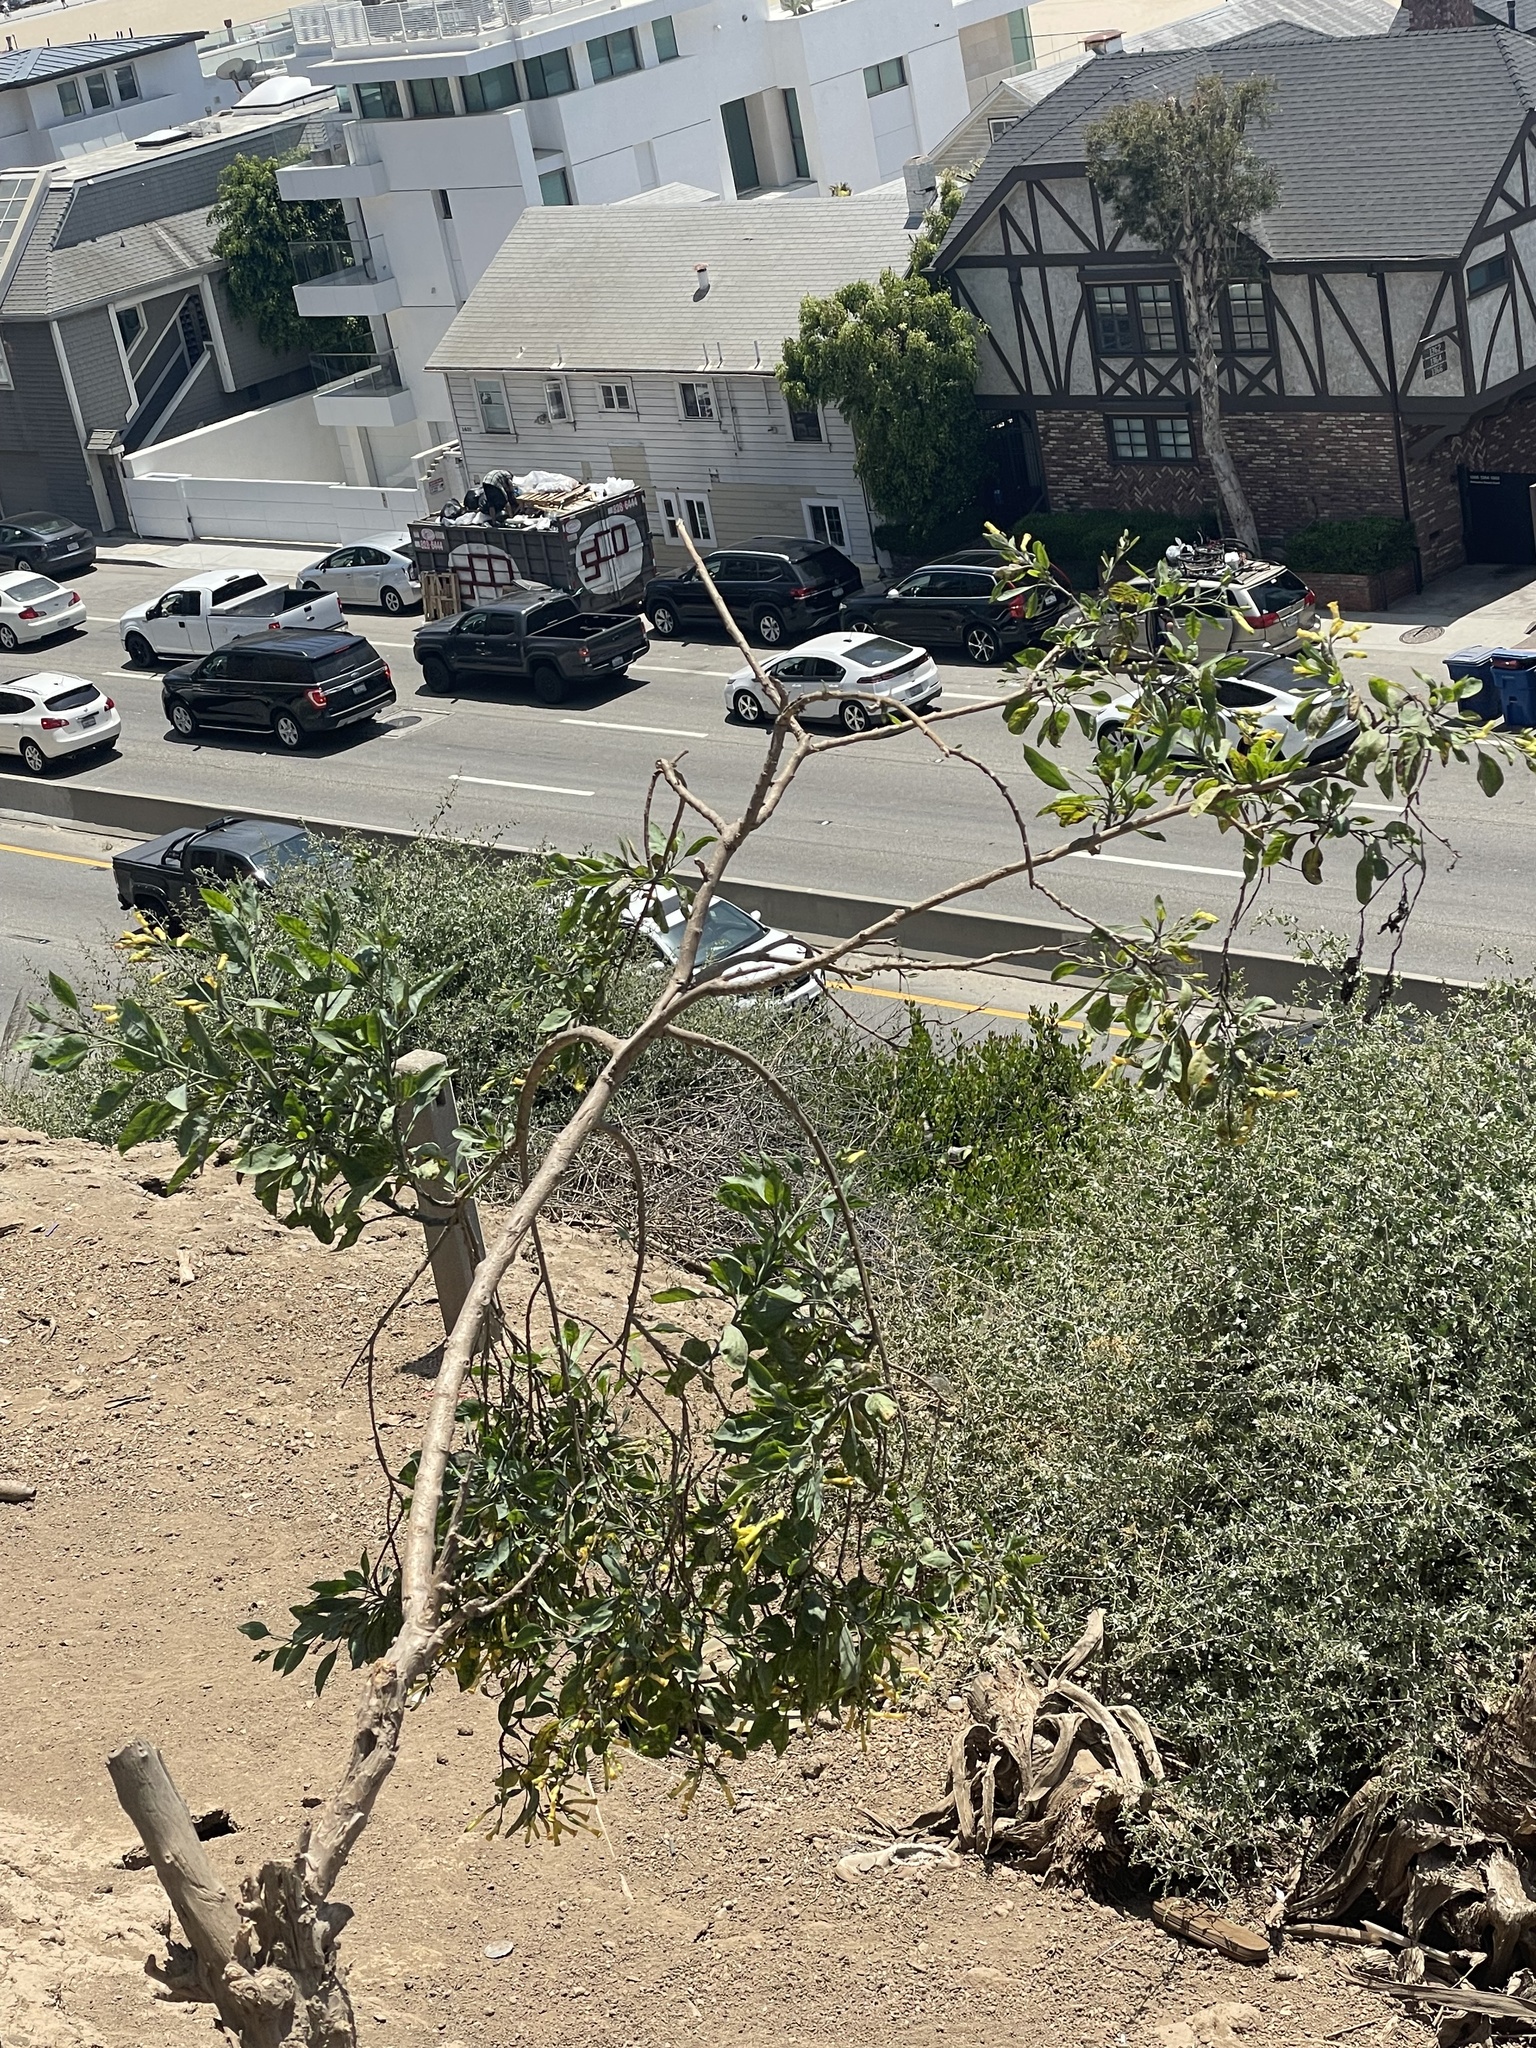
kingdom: Plantae
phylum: Tracheophyta
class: Magnoliopsida
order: Solanales
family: Solanaceae
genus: Nicotiana
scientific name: Nicotiana glauca
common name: Tree tobacco
